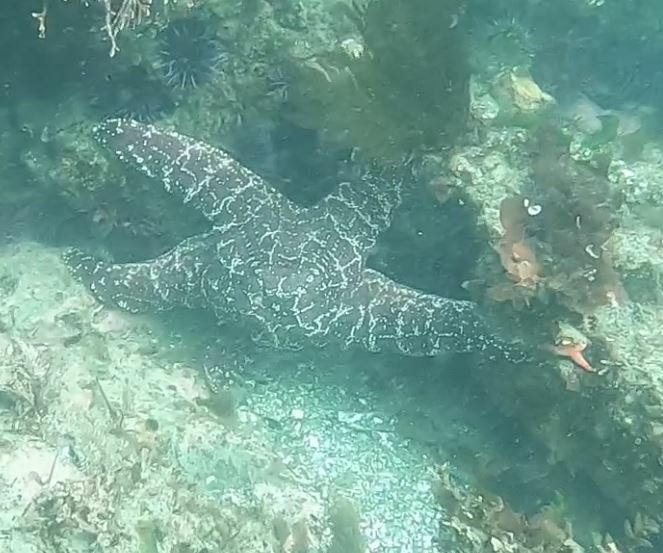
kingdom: Animalia
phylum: Echinodermata
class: Asteroidea
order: Forcipulatida
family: Asteriidae
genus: Pisaster
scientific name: Pisaster ochraceus
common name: Ochre stars
